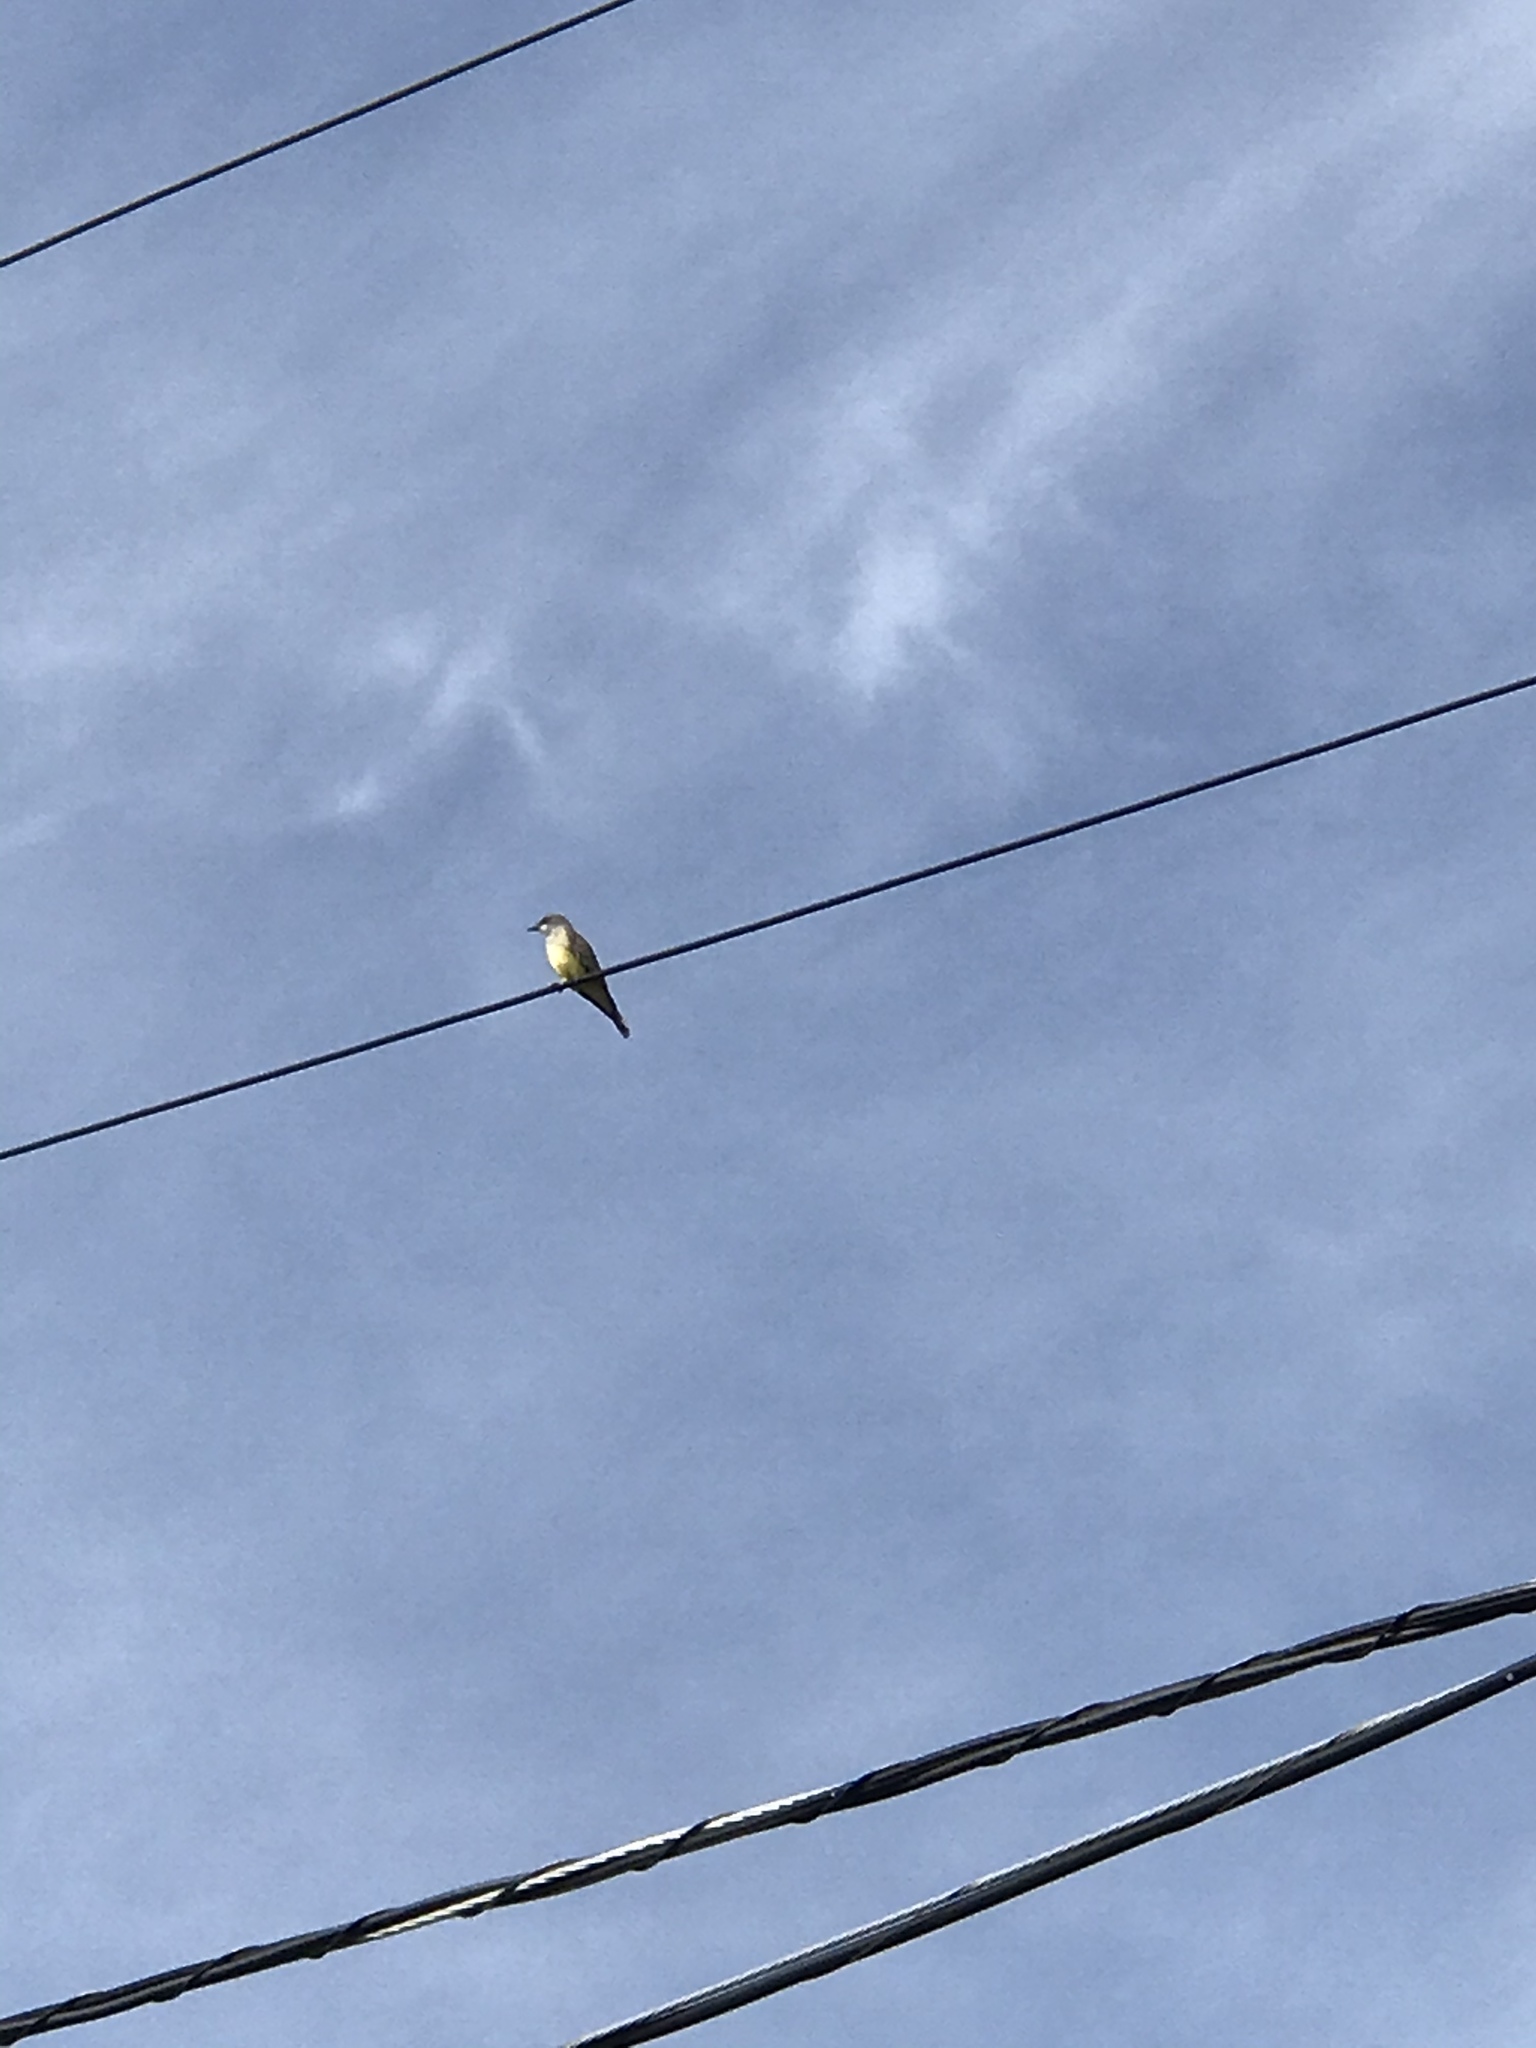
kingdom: Animalia
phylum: Chordata
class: Aves
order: Passeriformes
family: Tyrannidae
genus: Tyrannus
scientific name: Tyrannus vociferans
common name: Cassin's kingbird
